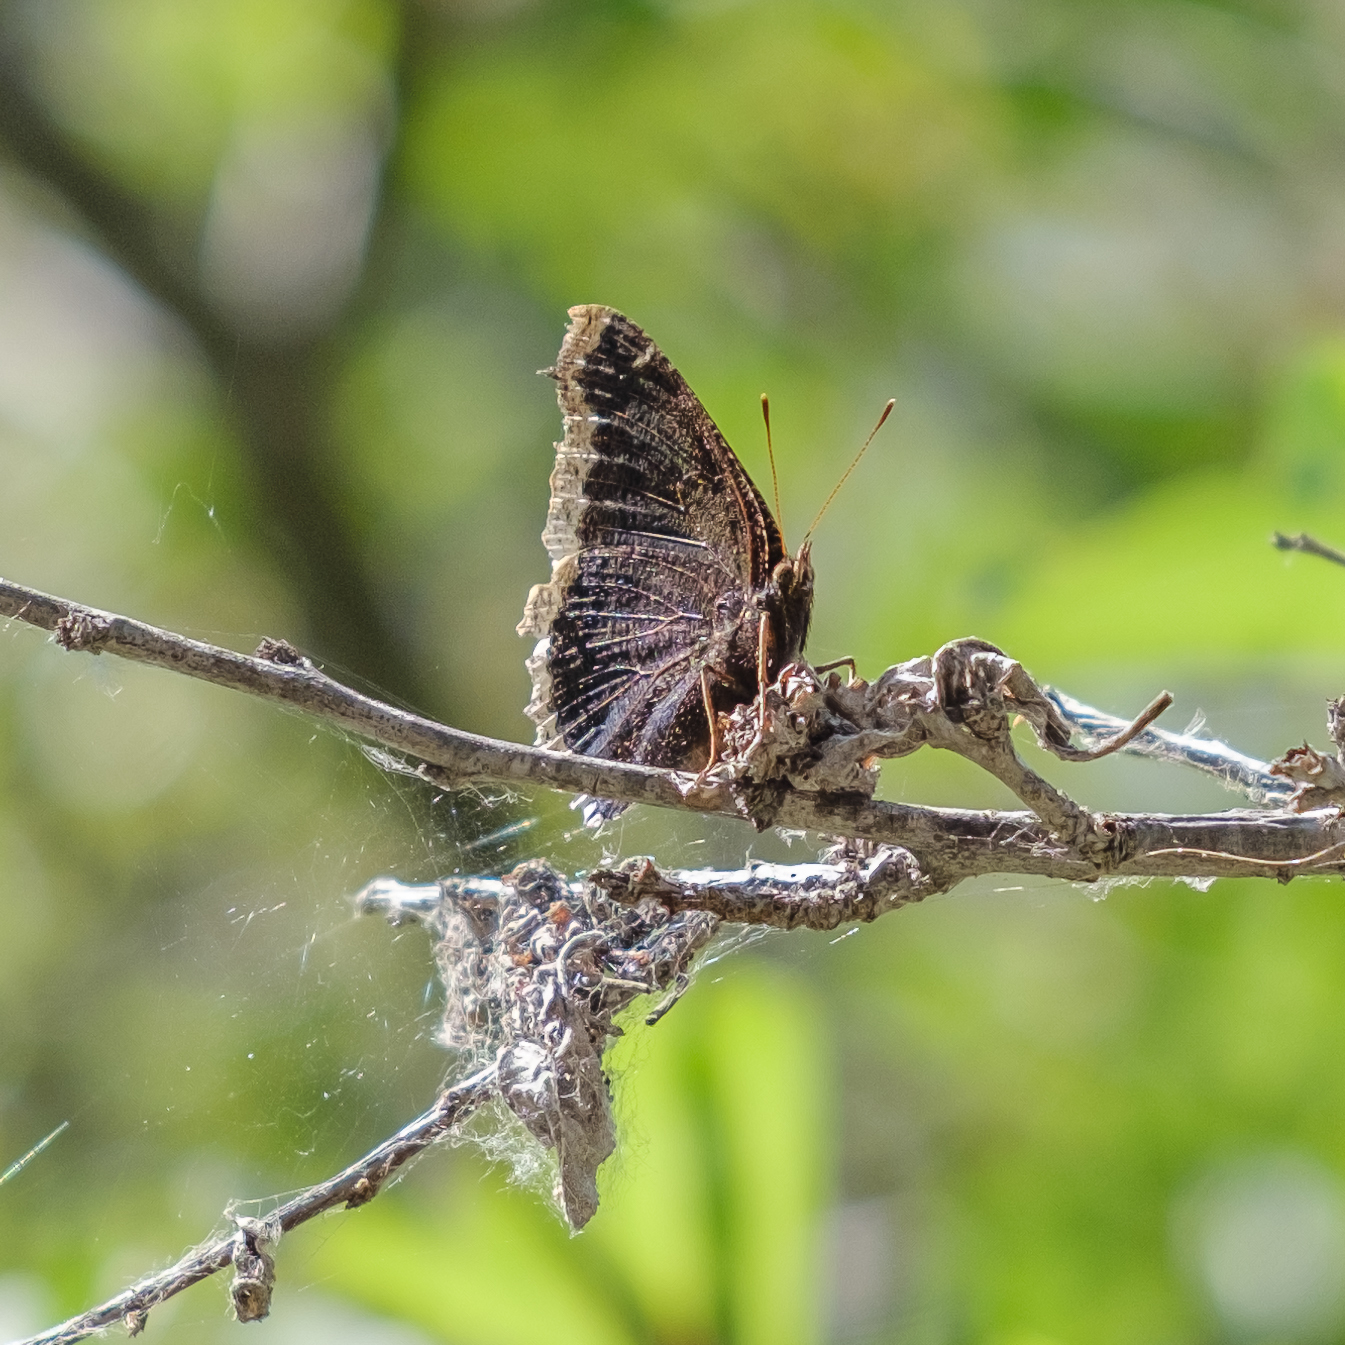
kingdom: Animalia
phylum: Arthropoda
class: Insecta
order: Lepidoptera
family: Nymphalidae
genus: Nymphalis
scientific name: Nymphalis antiopa
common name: Camberwell beauty
